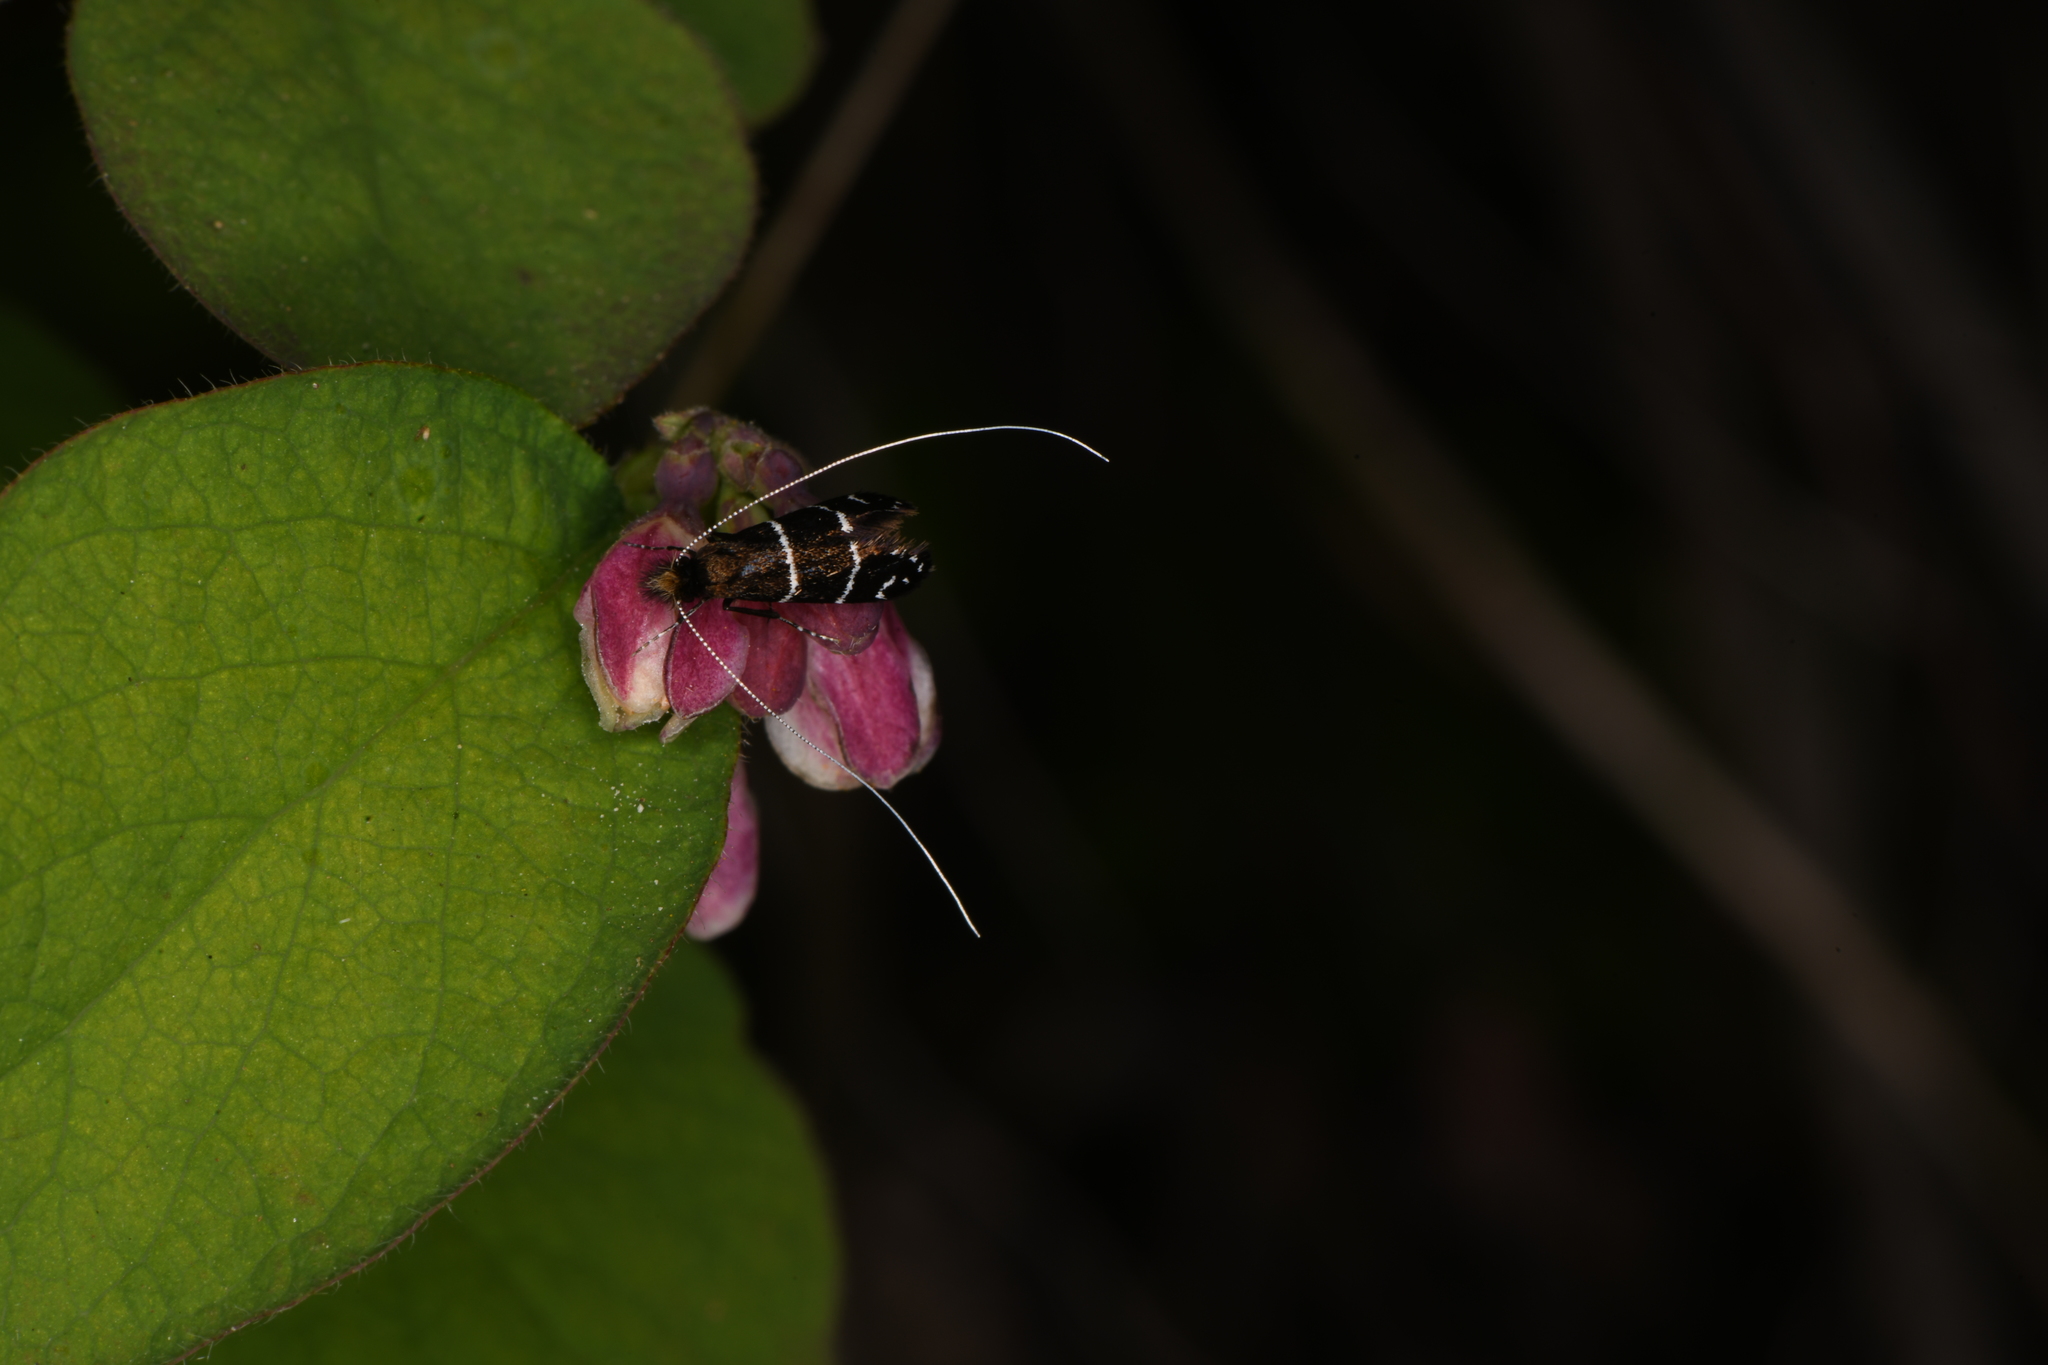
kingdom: Animalia
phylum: Arthropoda
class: Insecta
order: Lepidoptera
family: Adelidae
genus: Adela
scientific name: Adela septentrionella
